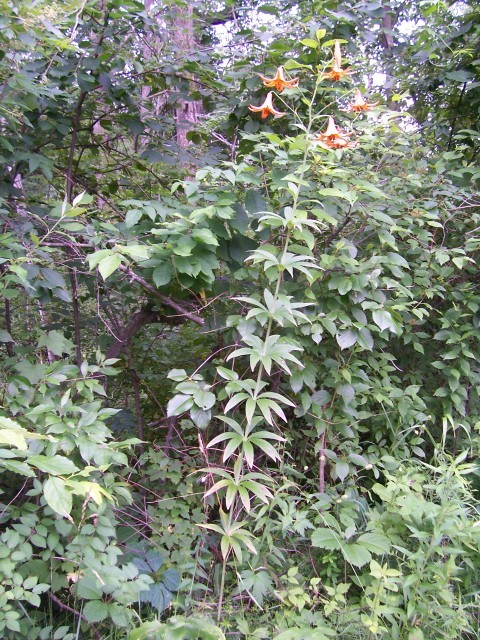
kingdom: Plantae
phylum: Tracheophyta
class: Liliopsida
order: Liliales
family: Liliaceae
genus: Lilium
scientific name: Lilium canadense
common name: Canada lily
